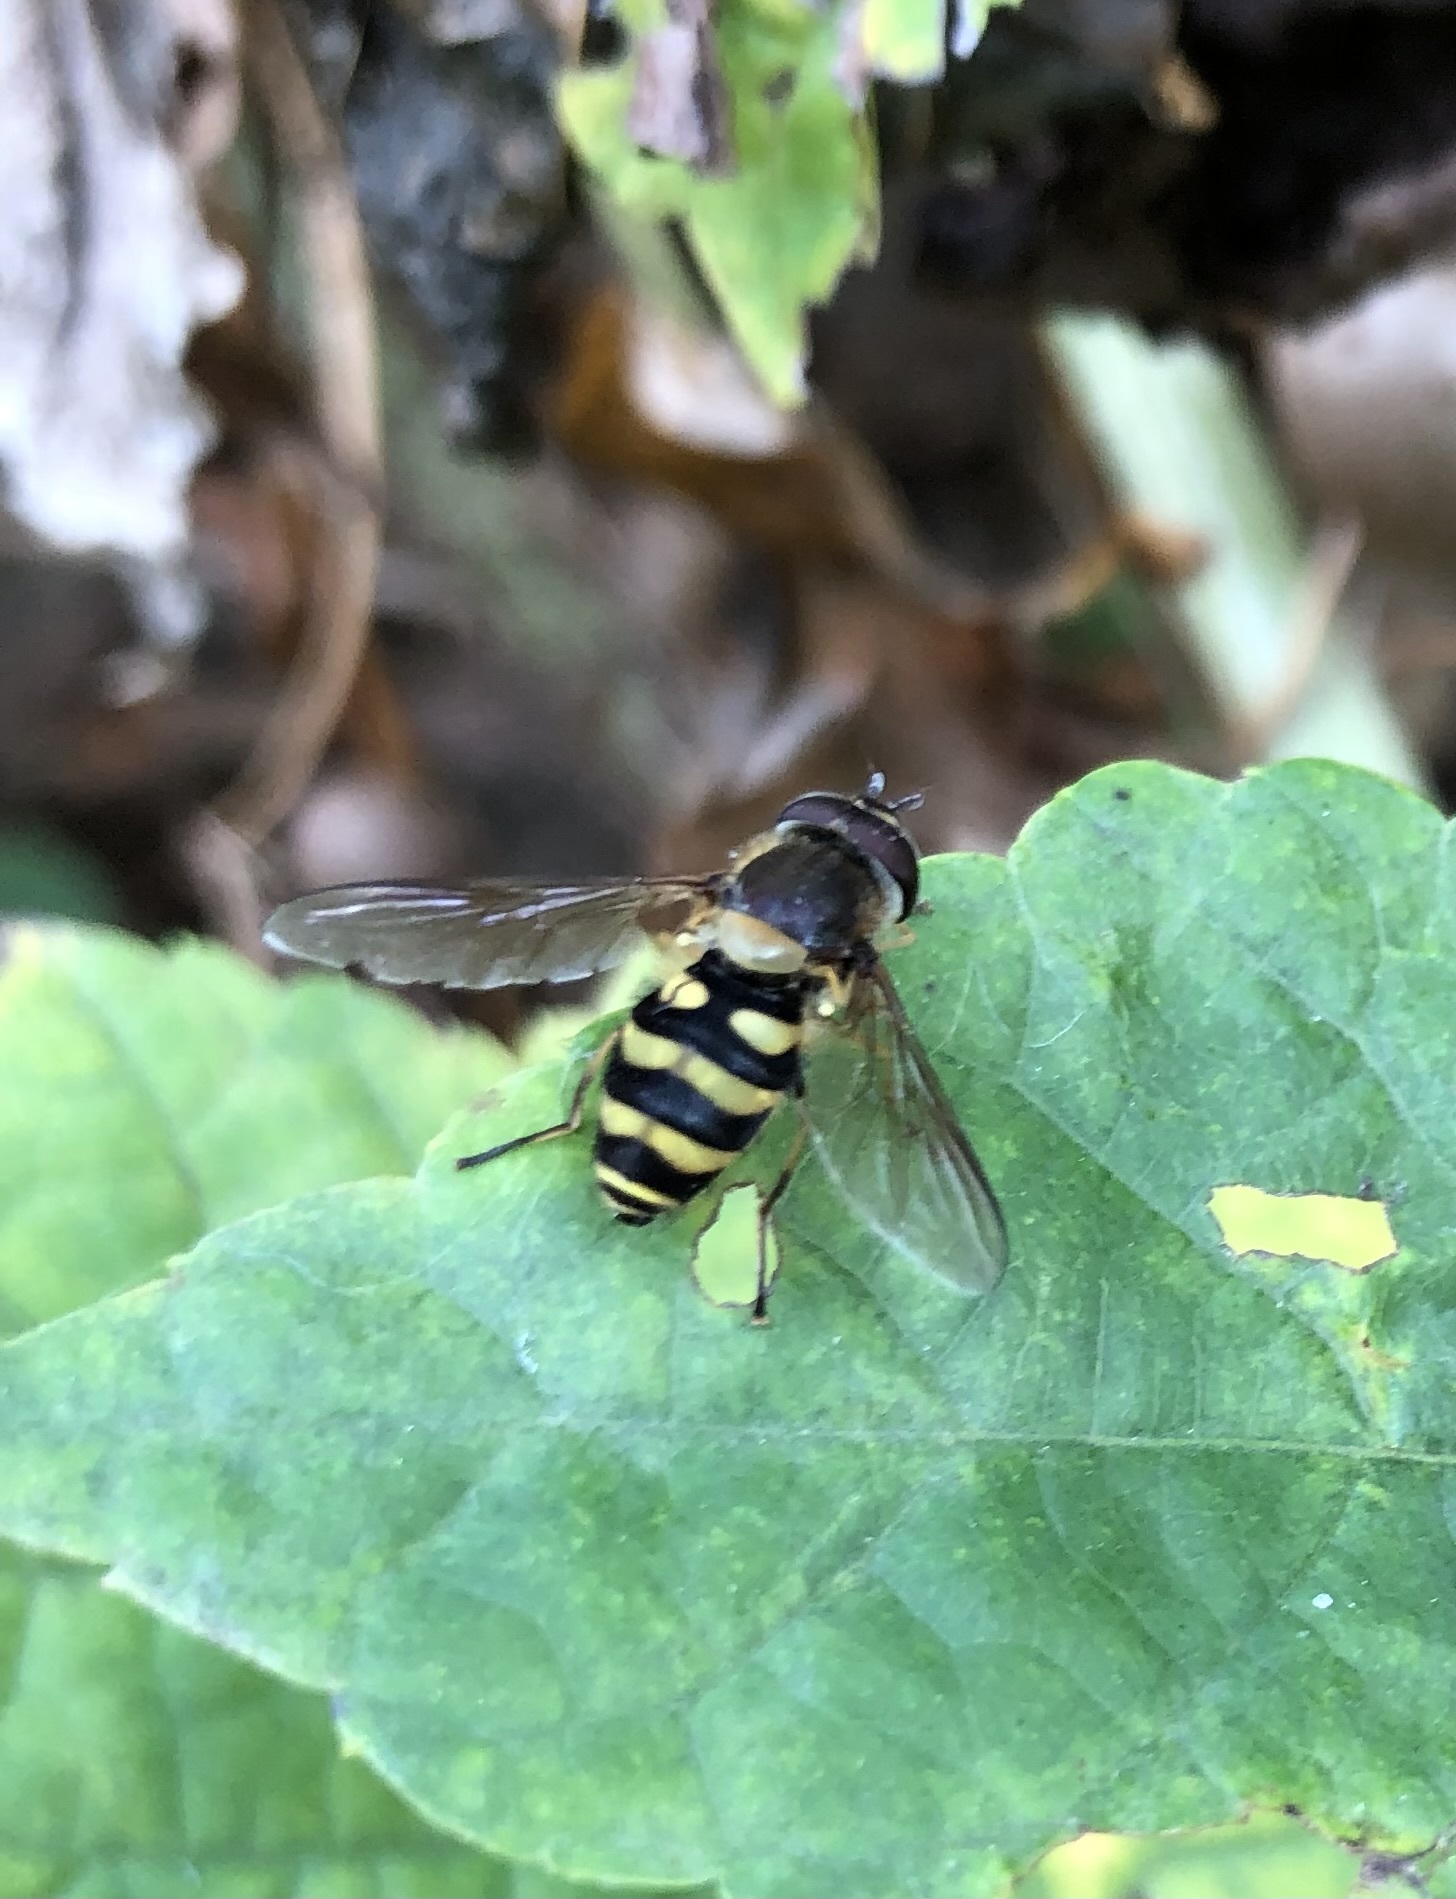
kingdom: Animalia
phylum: Arthropoda
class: Insecta
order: Diptera
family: Syrphidae
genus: Syrphus
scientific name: Syrphus torvus
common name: Hairy-eyed flower fly
